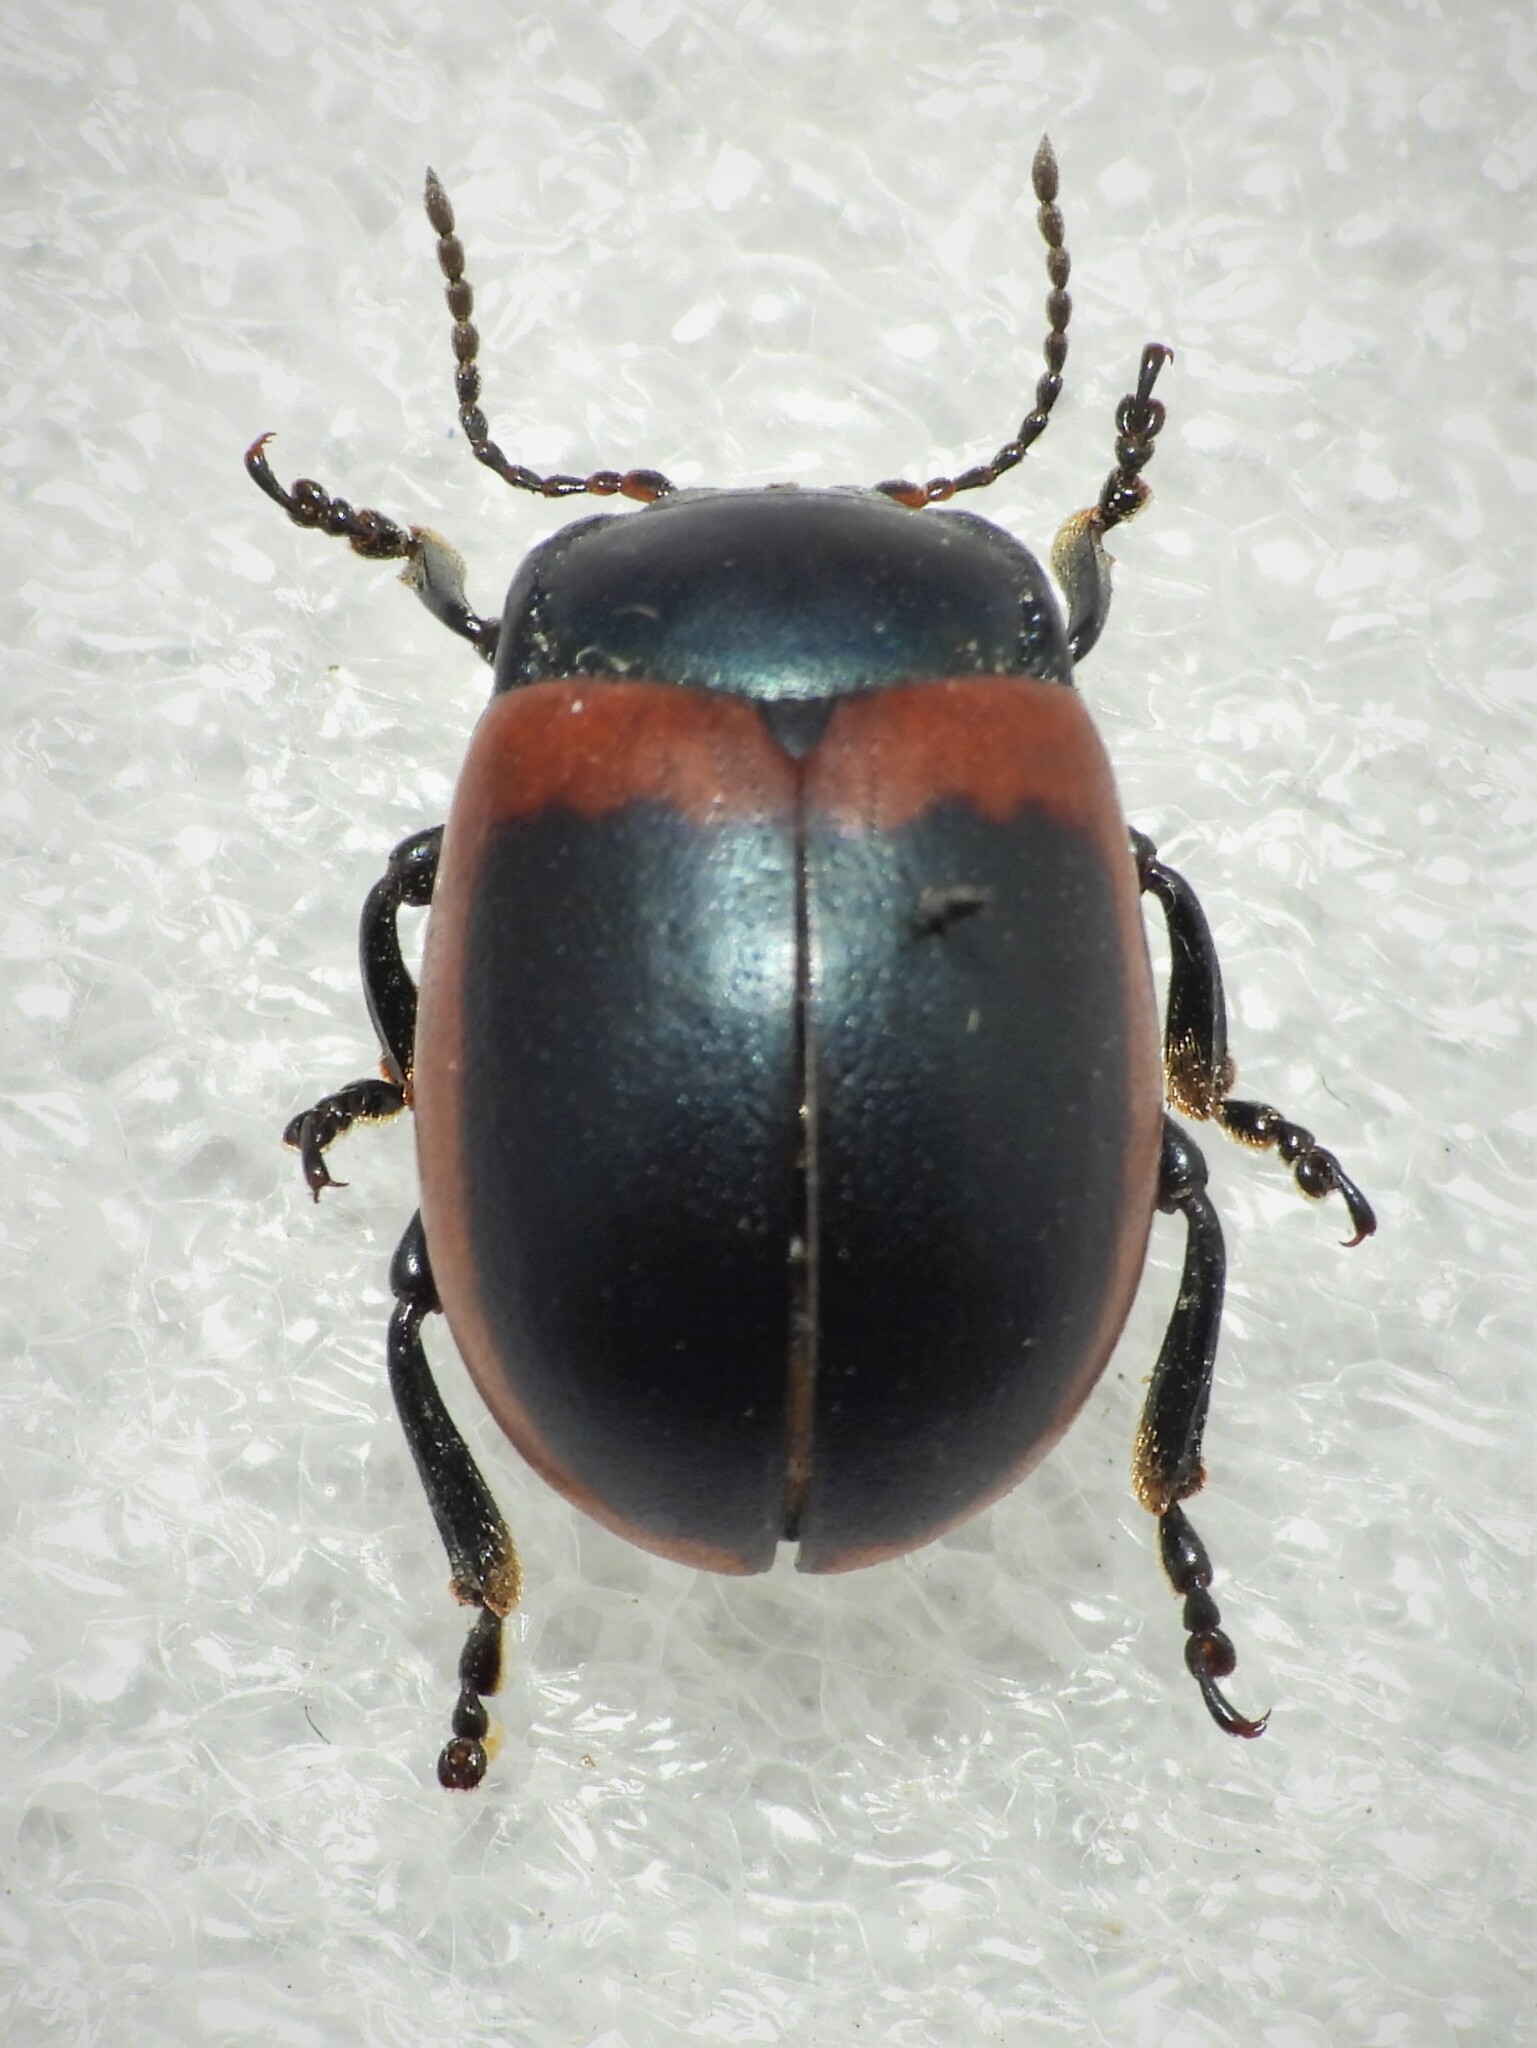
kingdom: Animalia
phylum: Arthropoda
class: Insecta
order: Coleoptera
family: Chrysomelidae
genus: Chrysolina
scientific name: Chrysolina limbata
